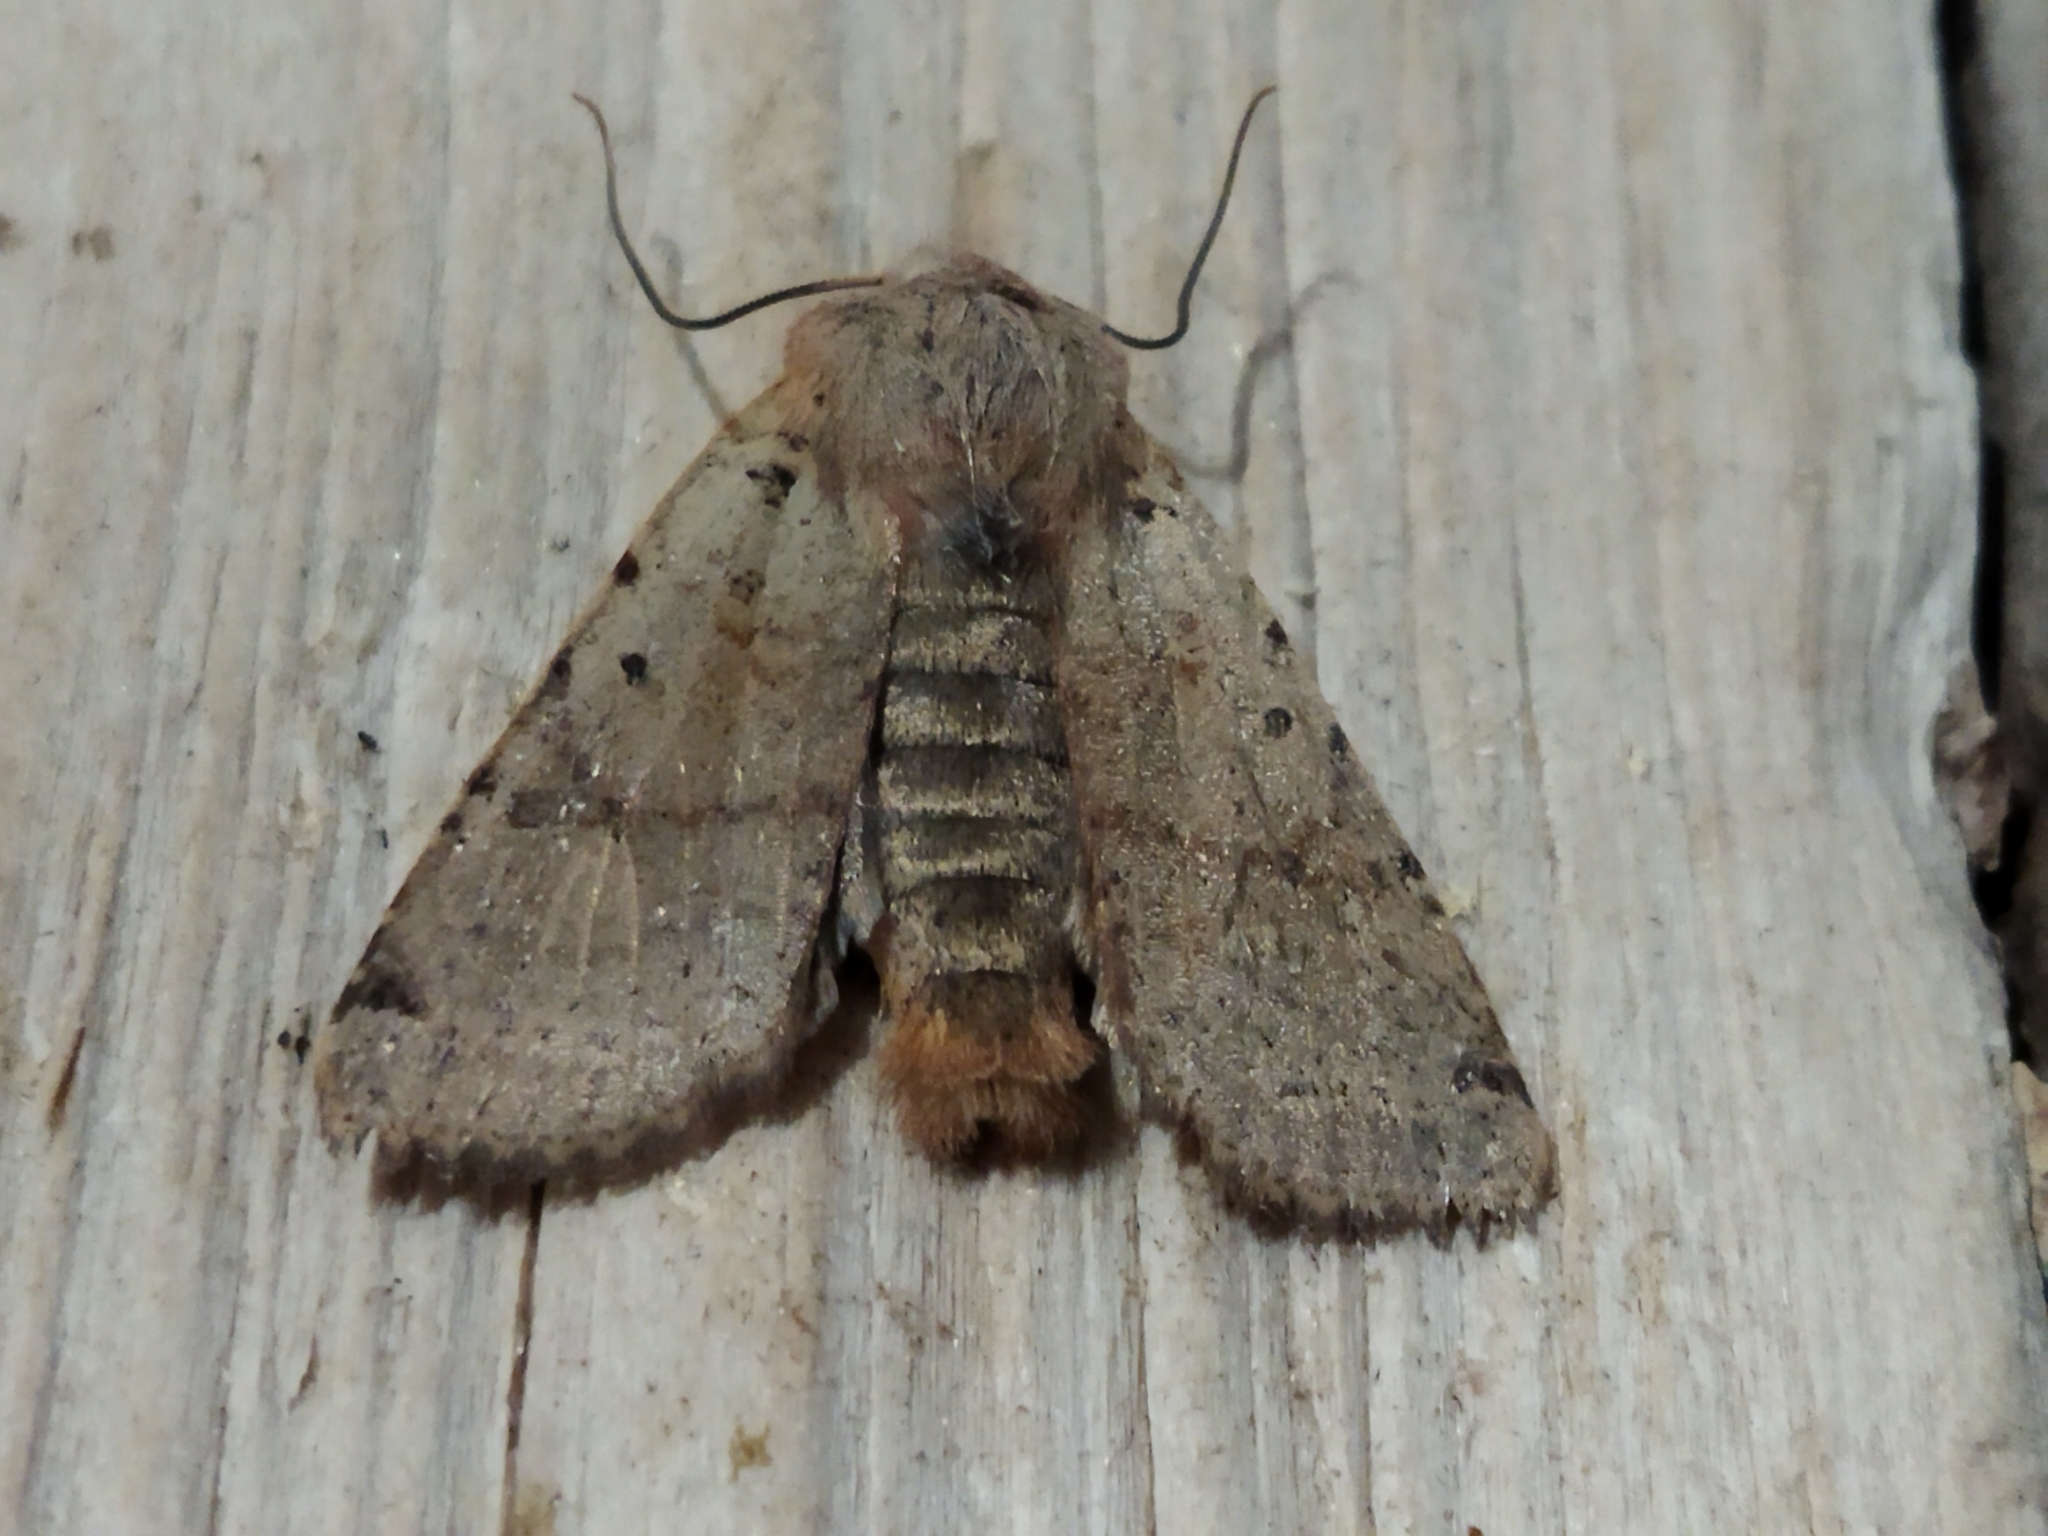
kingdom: Animalia
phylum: Arthropoda
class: Insecta
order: Lepidoptera
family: Noctuidae
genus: Agrochola
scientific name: Agrochola lychnidis
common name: Beaded chestnut
